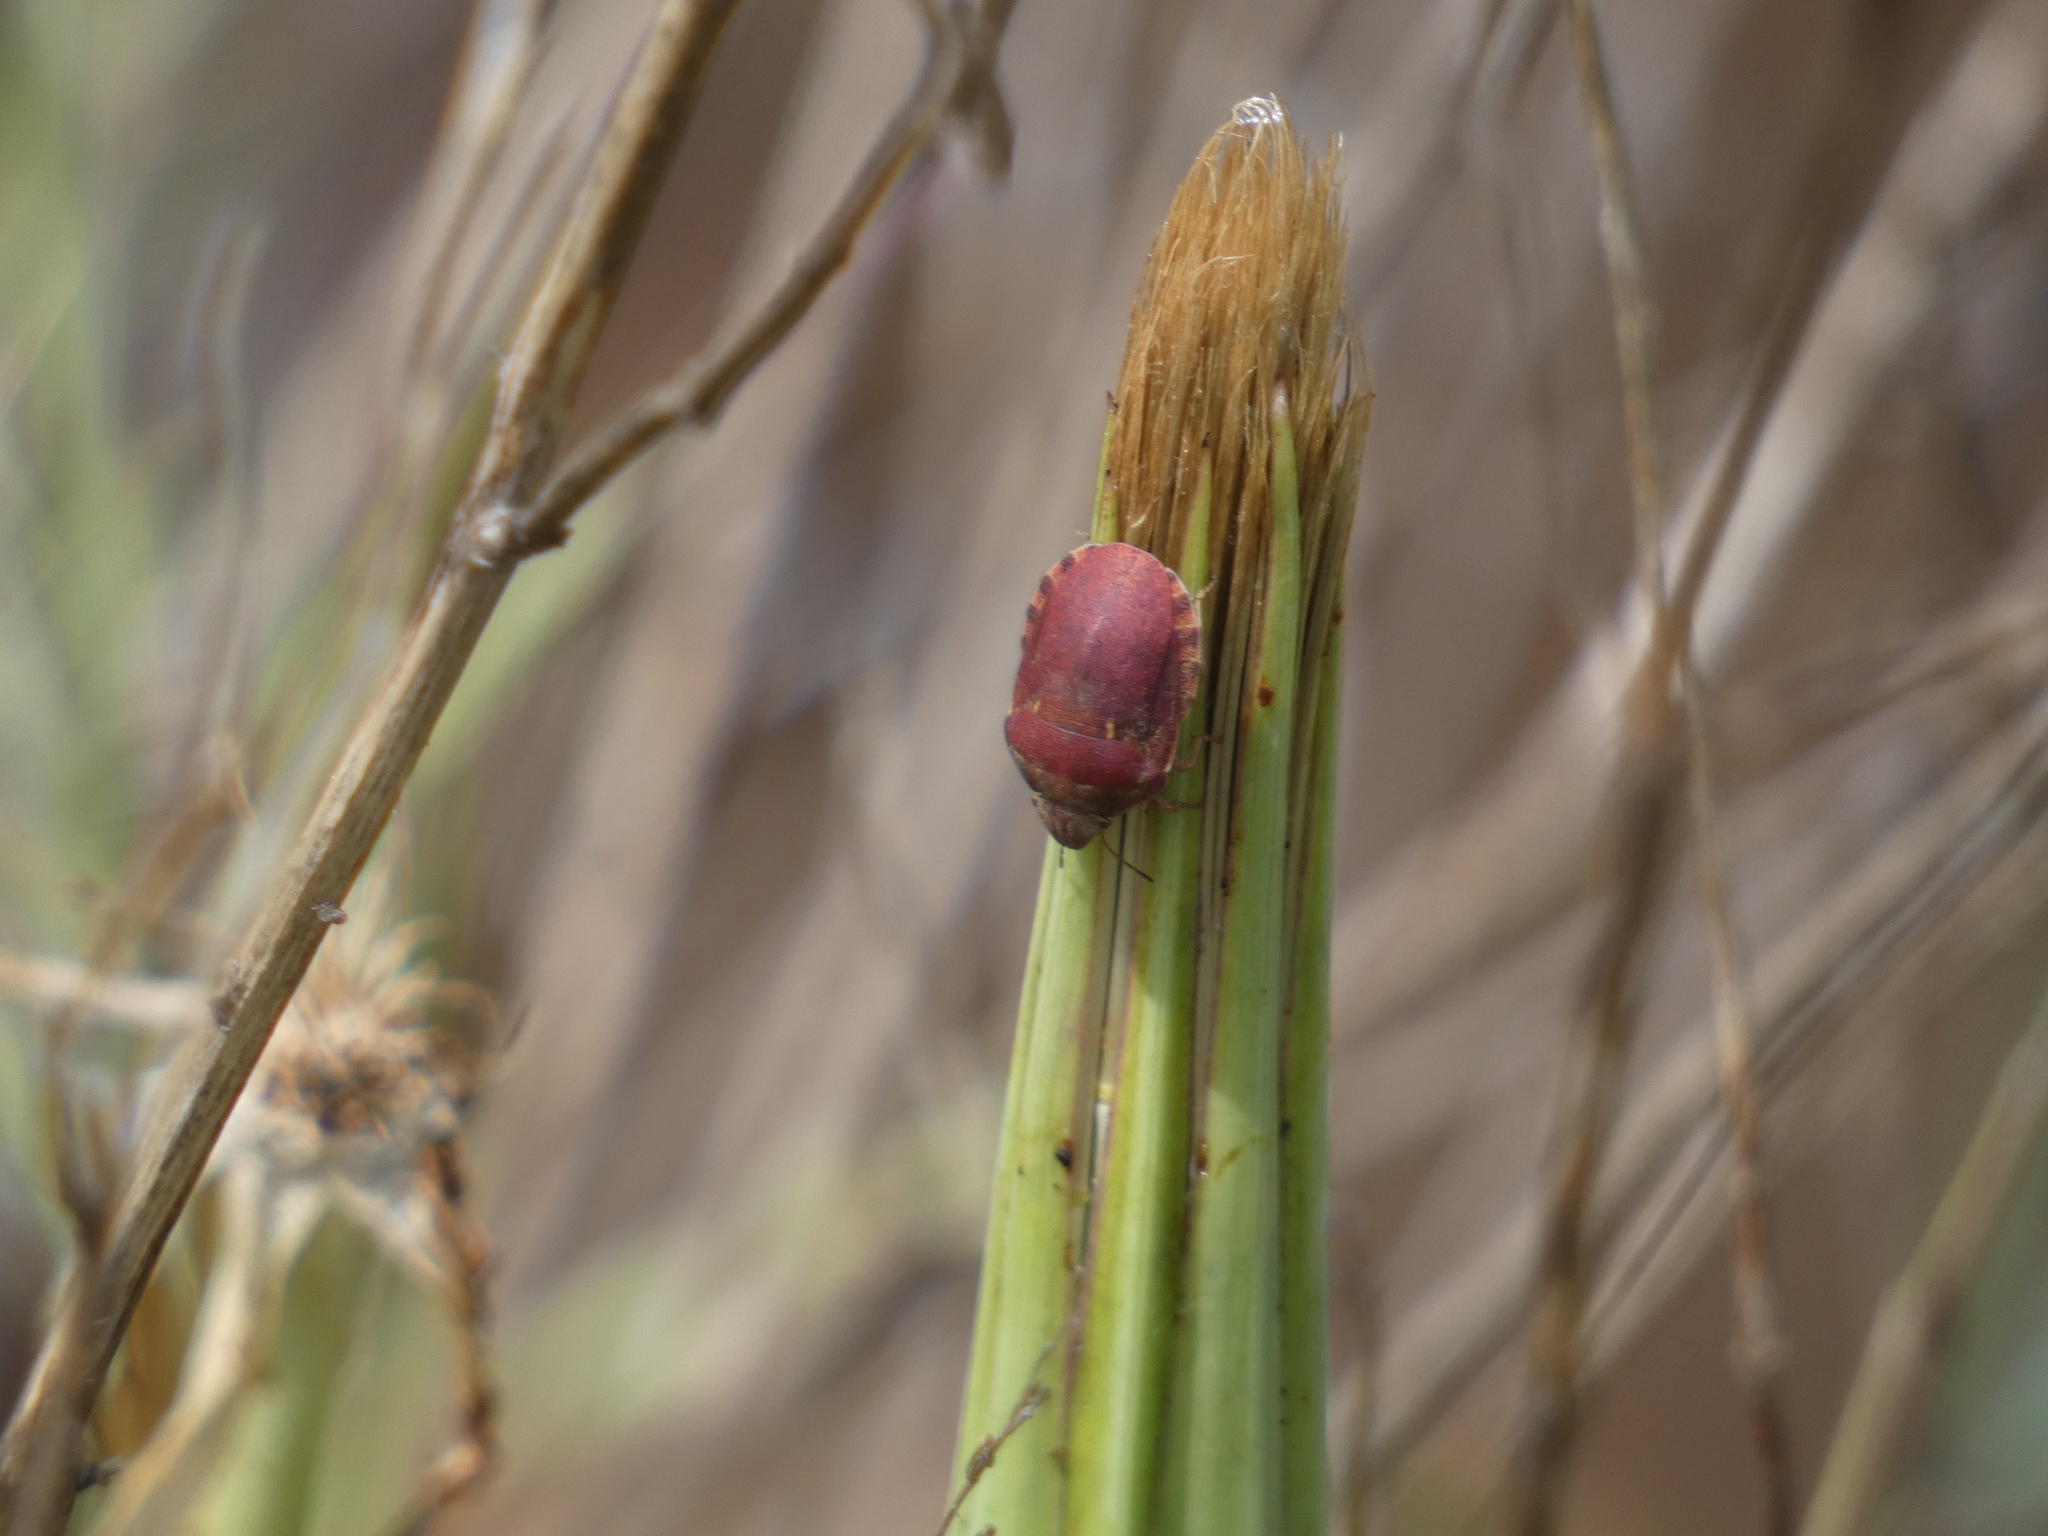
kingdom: Animalia
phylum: Arthropoda
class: Insecta
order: Hemiptera
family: Scutelleridae
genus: Eurygaster
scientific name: Eurygaster maura
